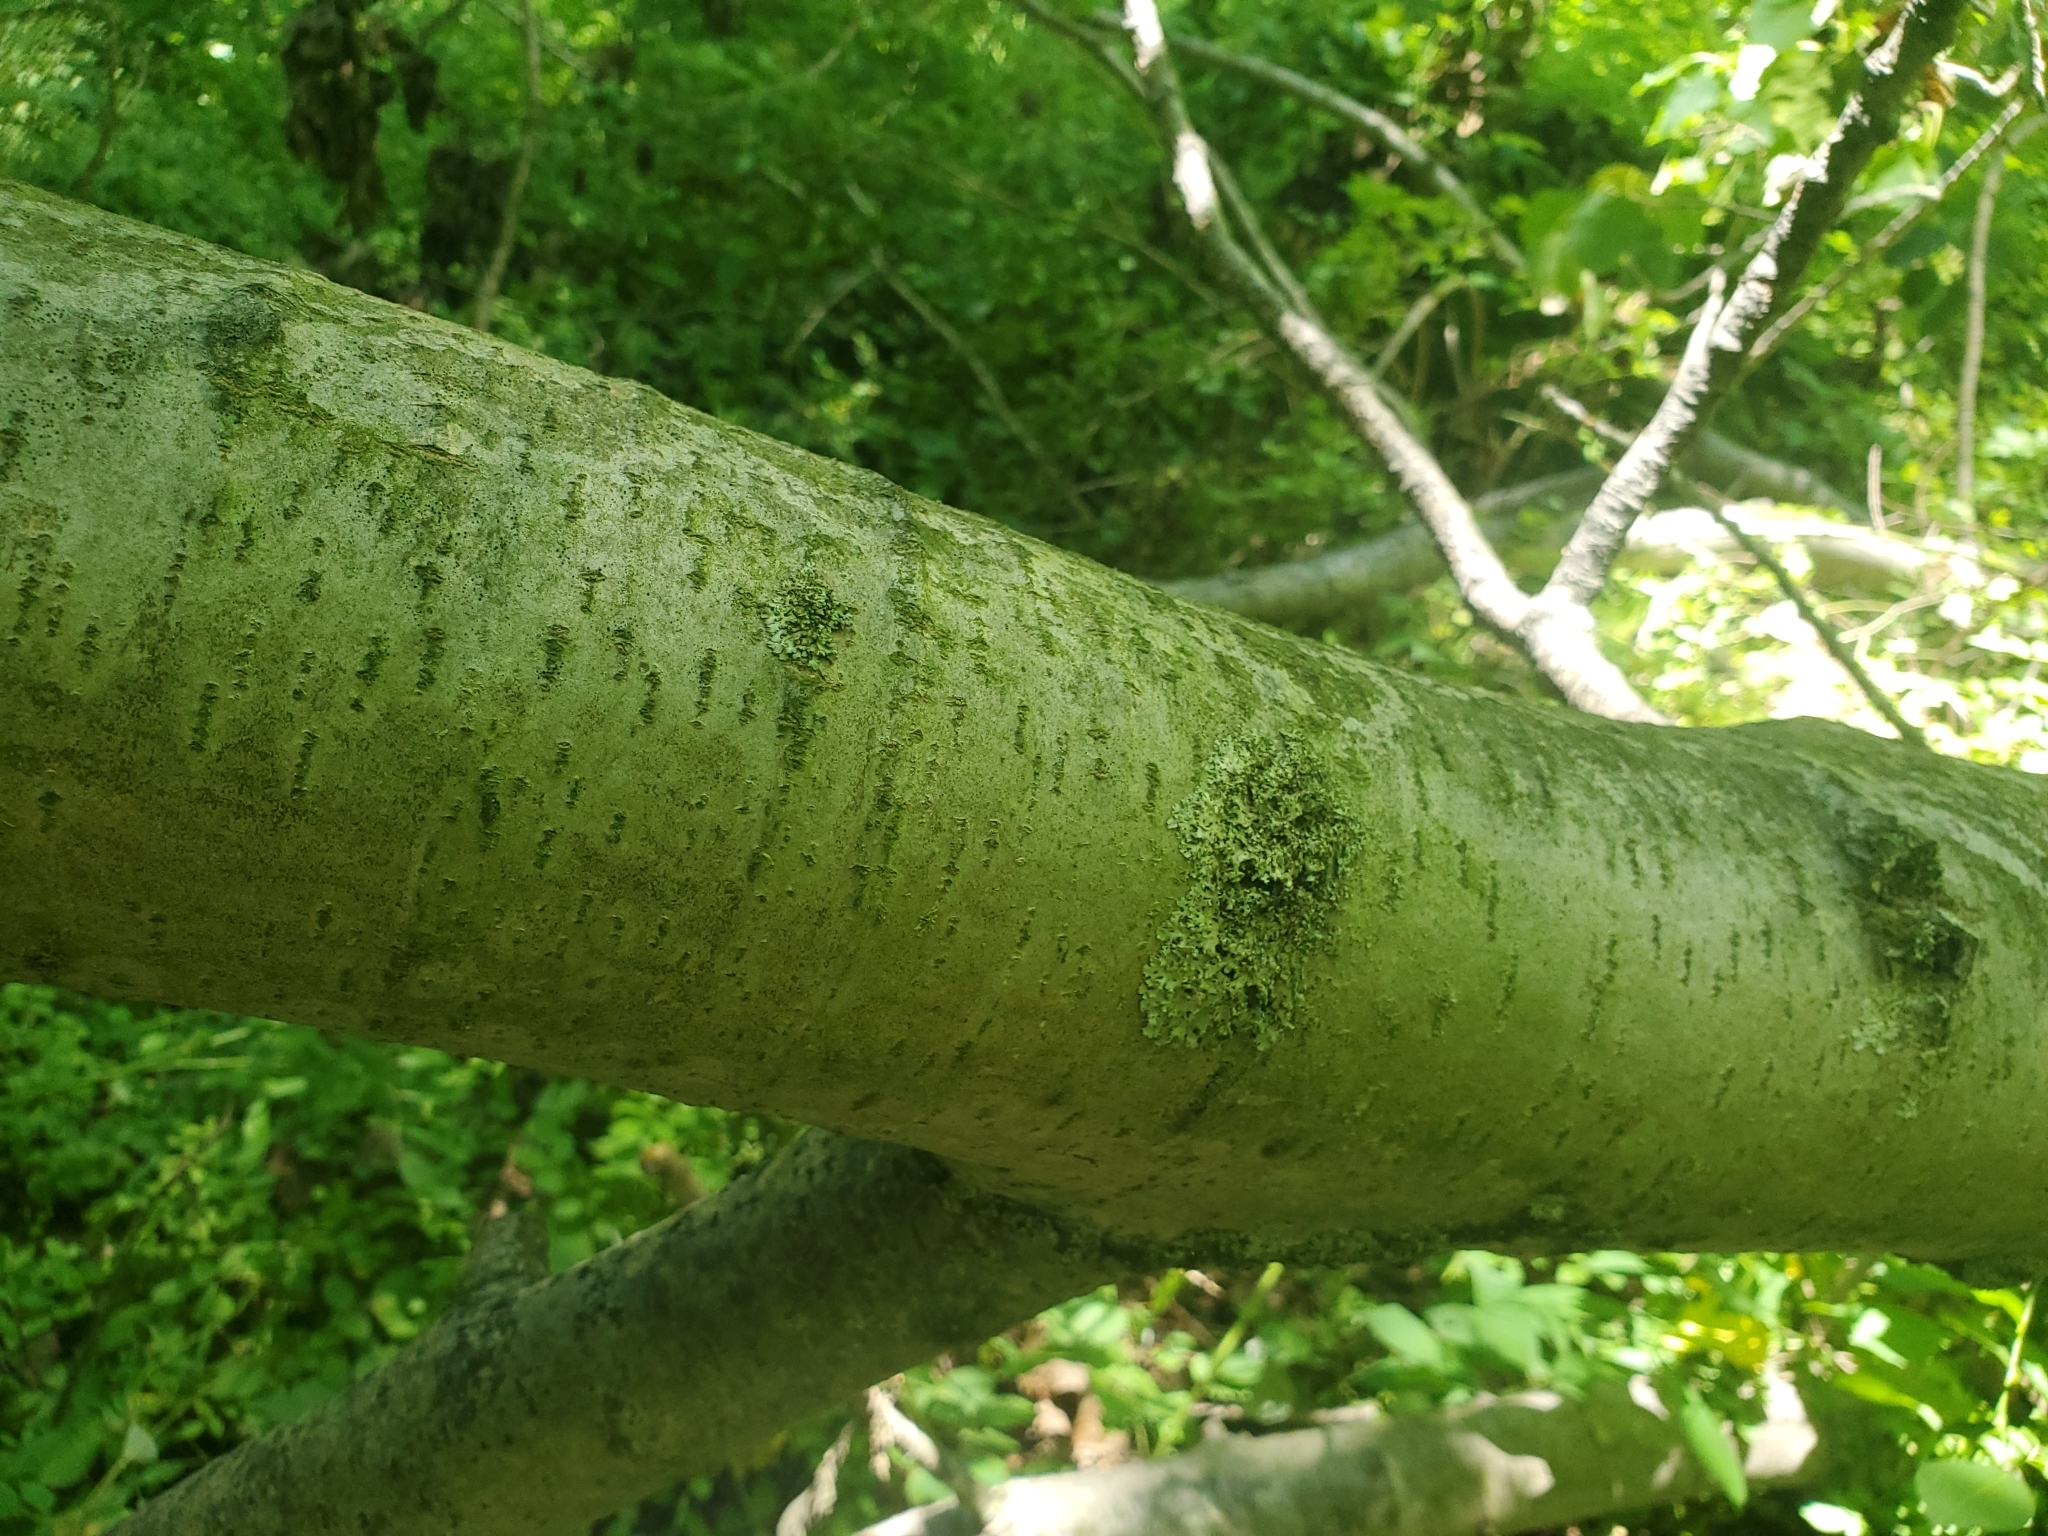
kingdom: Plantae
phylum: Tracheophyta
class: Magnoliopsida
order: Malpighiales
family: Salicaceae
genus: Populus
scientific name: Populus grandidentata
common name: Bigtooth aspen
